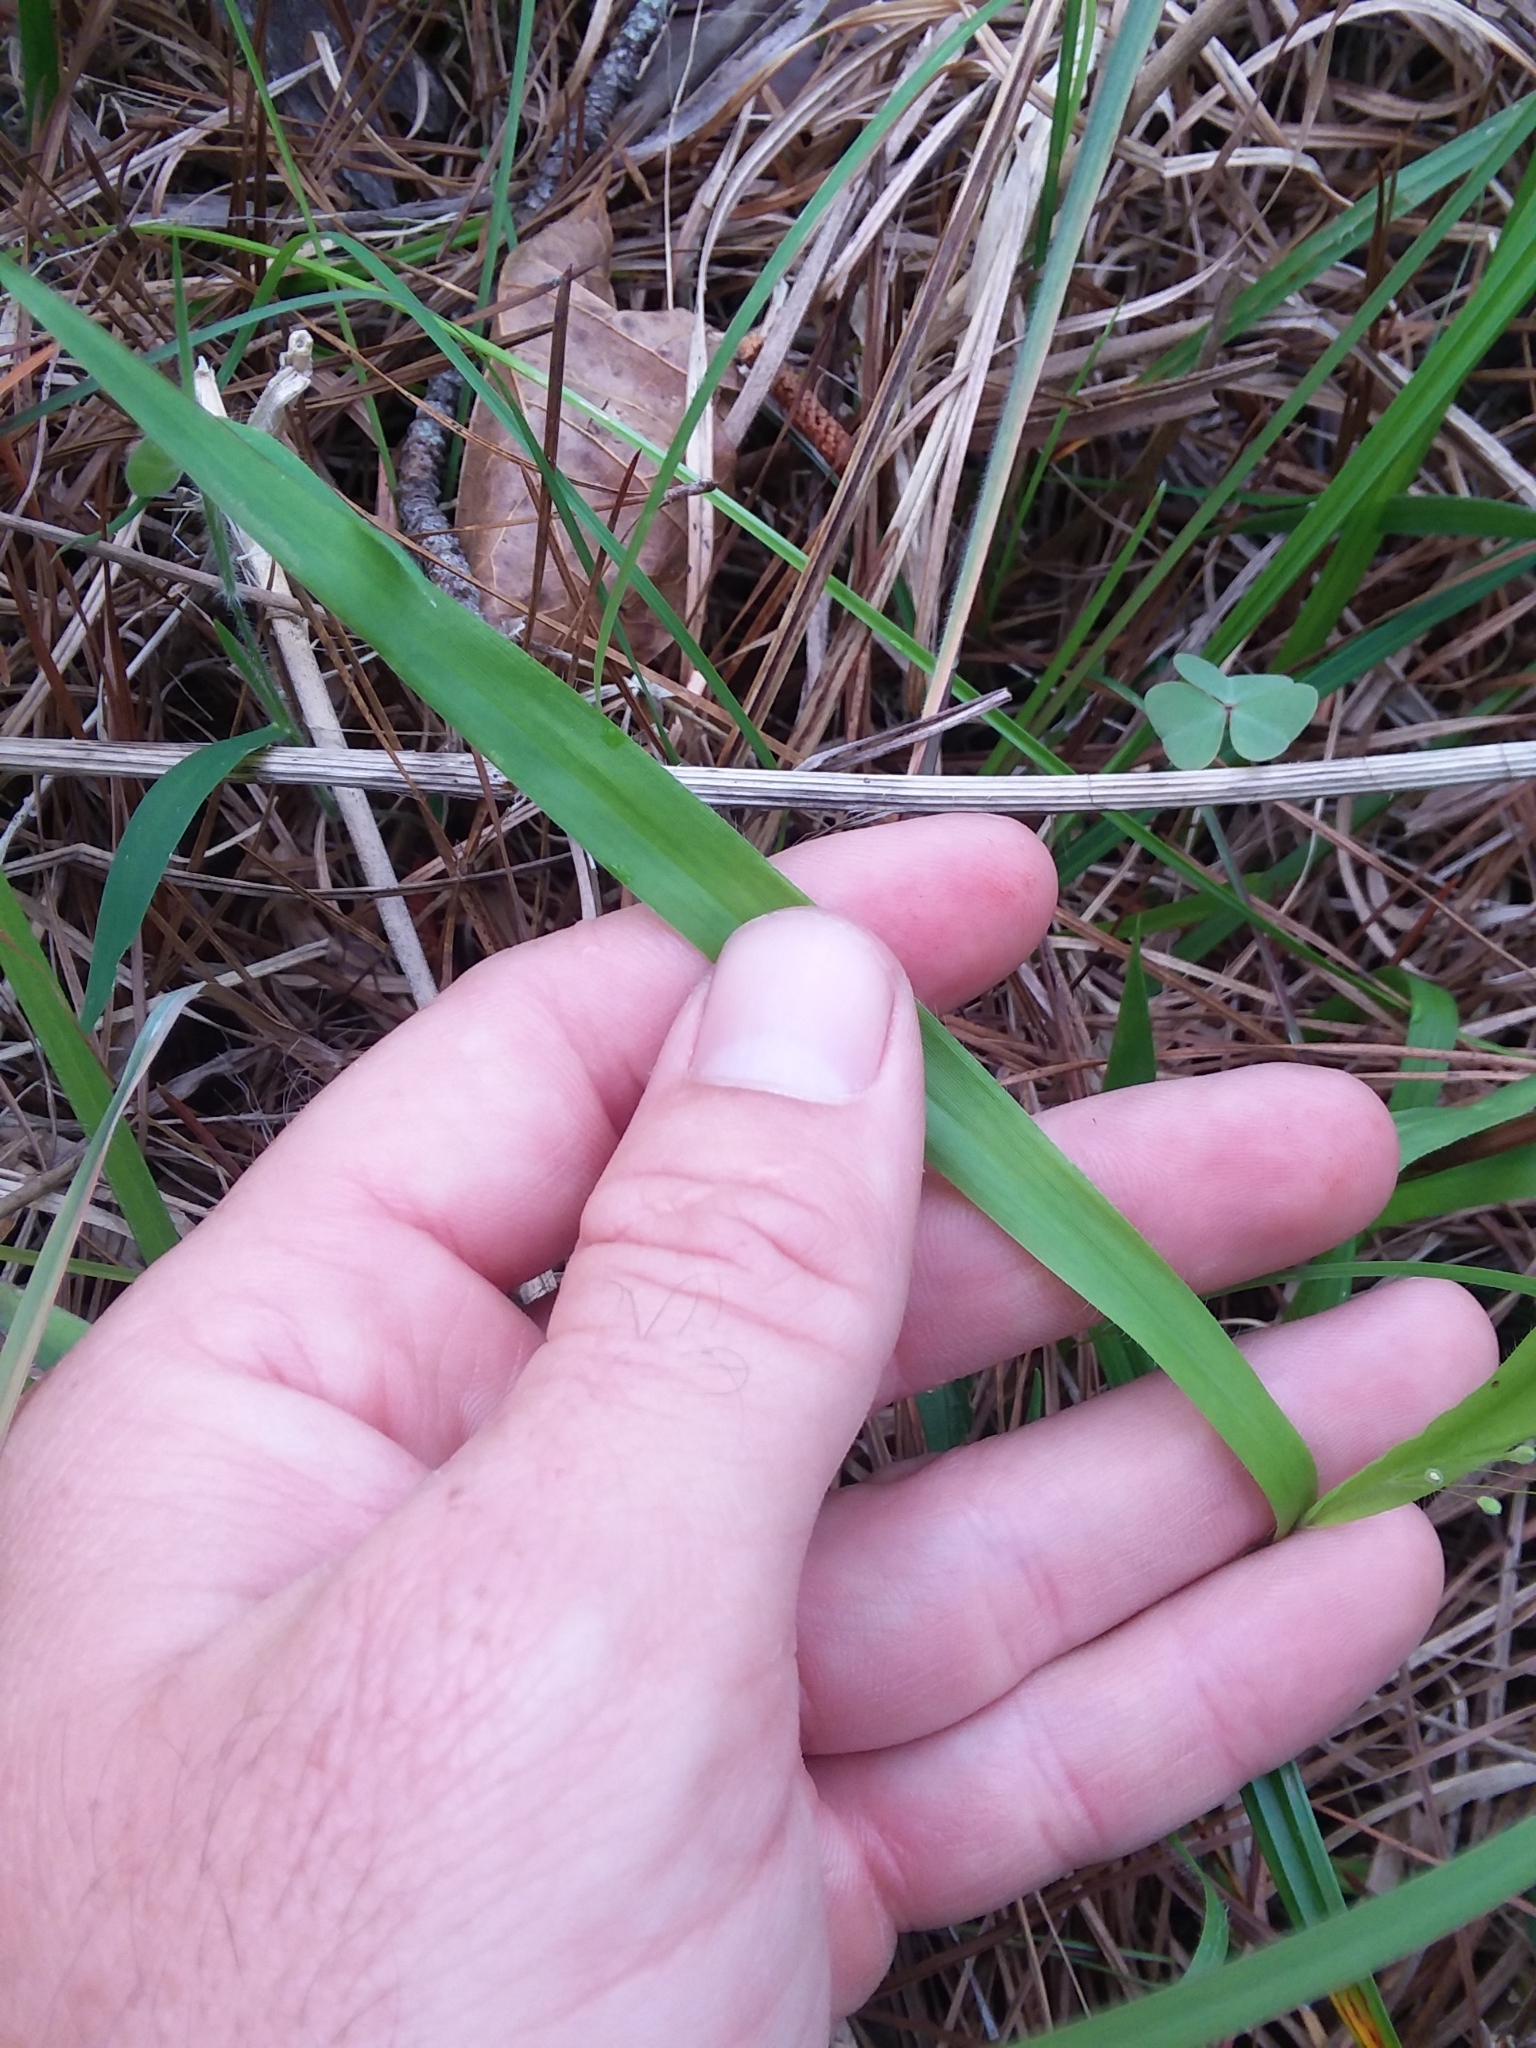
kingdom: Plantae
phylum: Tracheophyta
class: Liliopsida
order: Poales
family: Poaceae
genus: Dichanthelium
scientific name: Dichanthelium laxiflorum
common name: Soft-tuft panic grass
